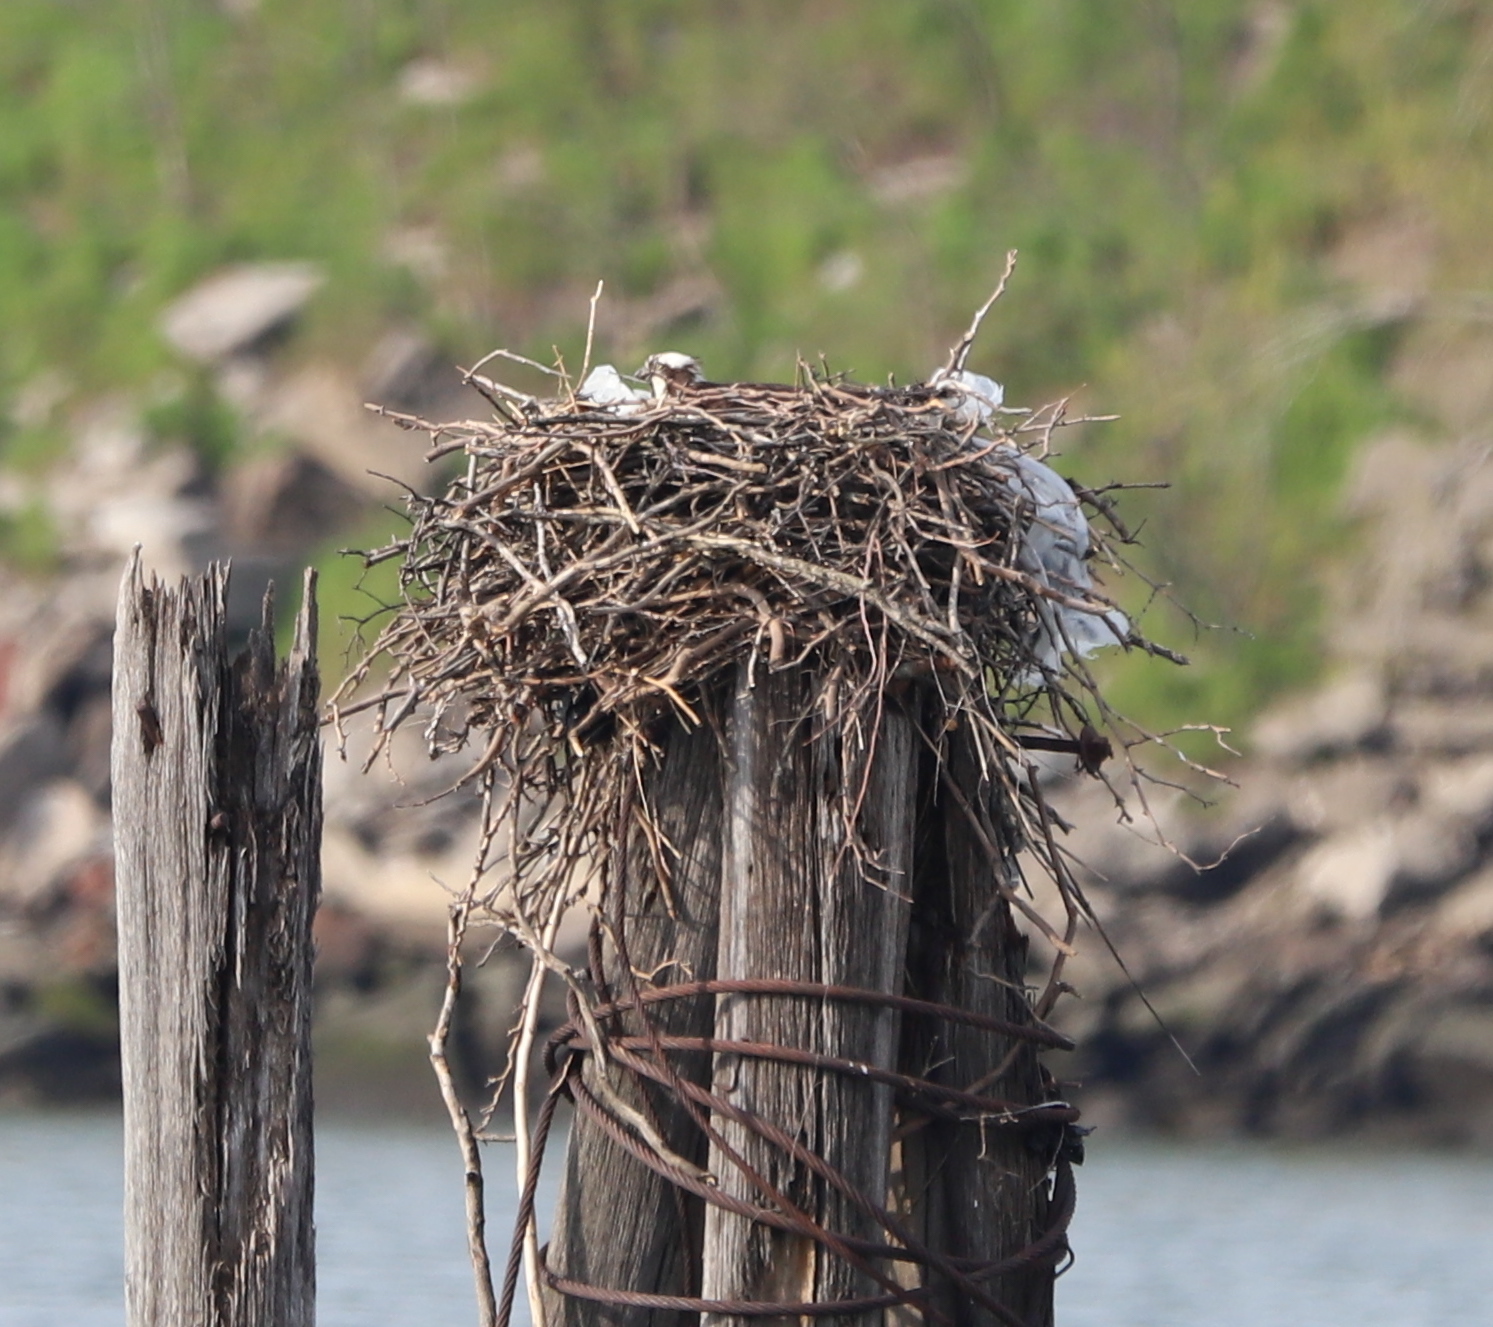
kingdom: Animalia
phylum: Chordata
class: Aves
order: Accipitriformes
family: Pandionidae
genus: Pandion
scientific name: Pandion haliaetus
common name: Osprey
